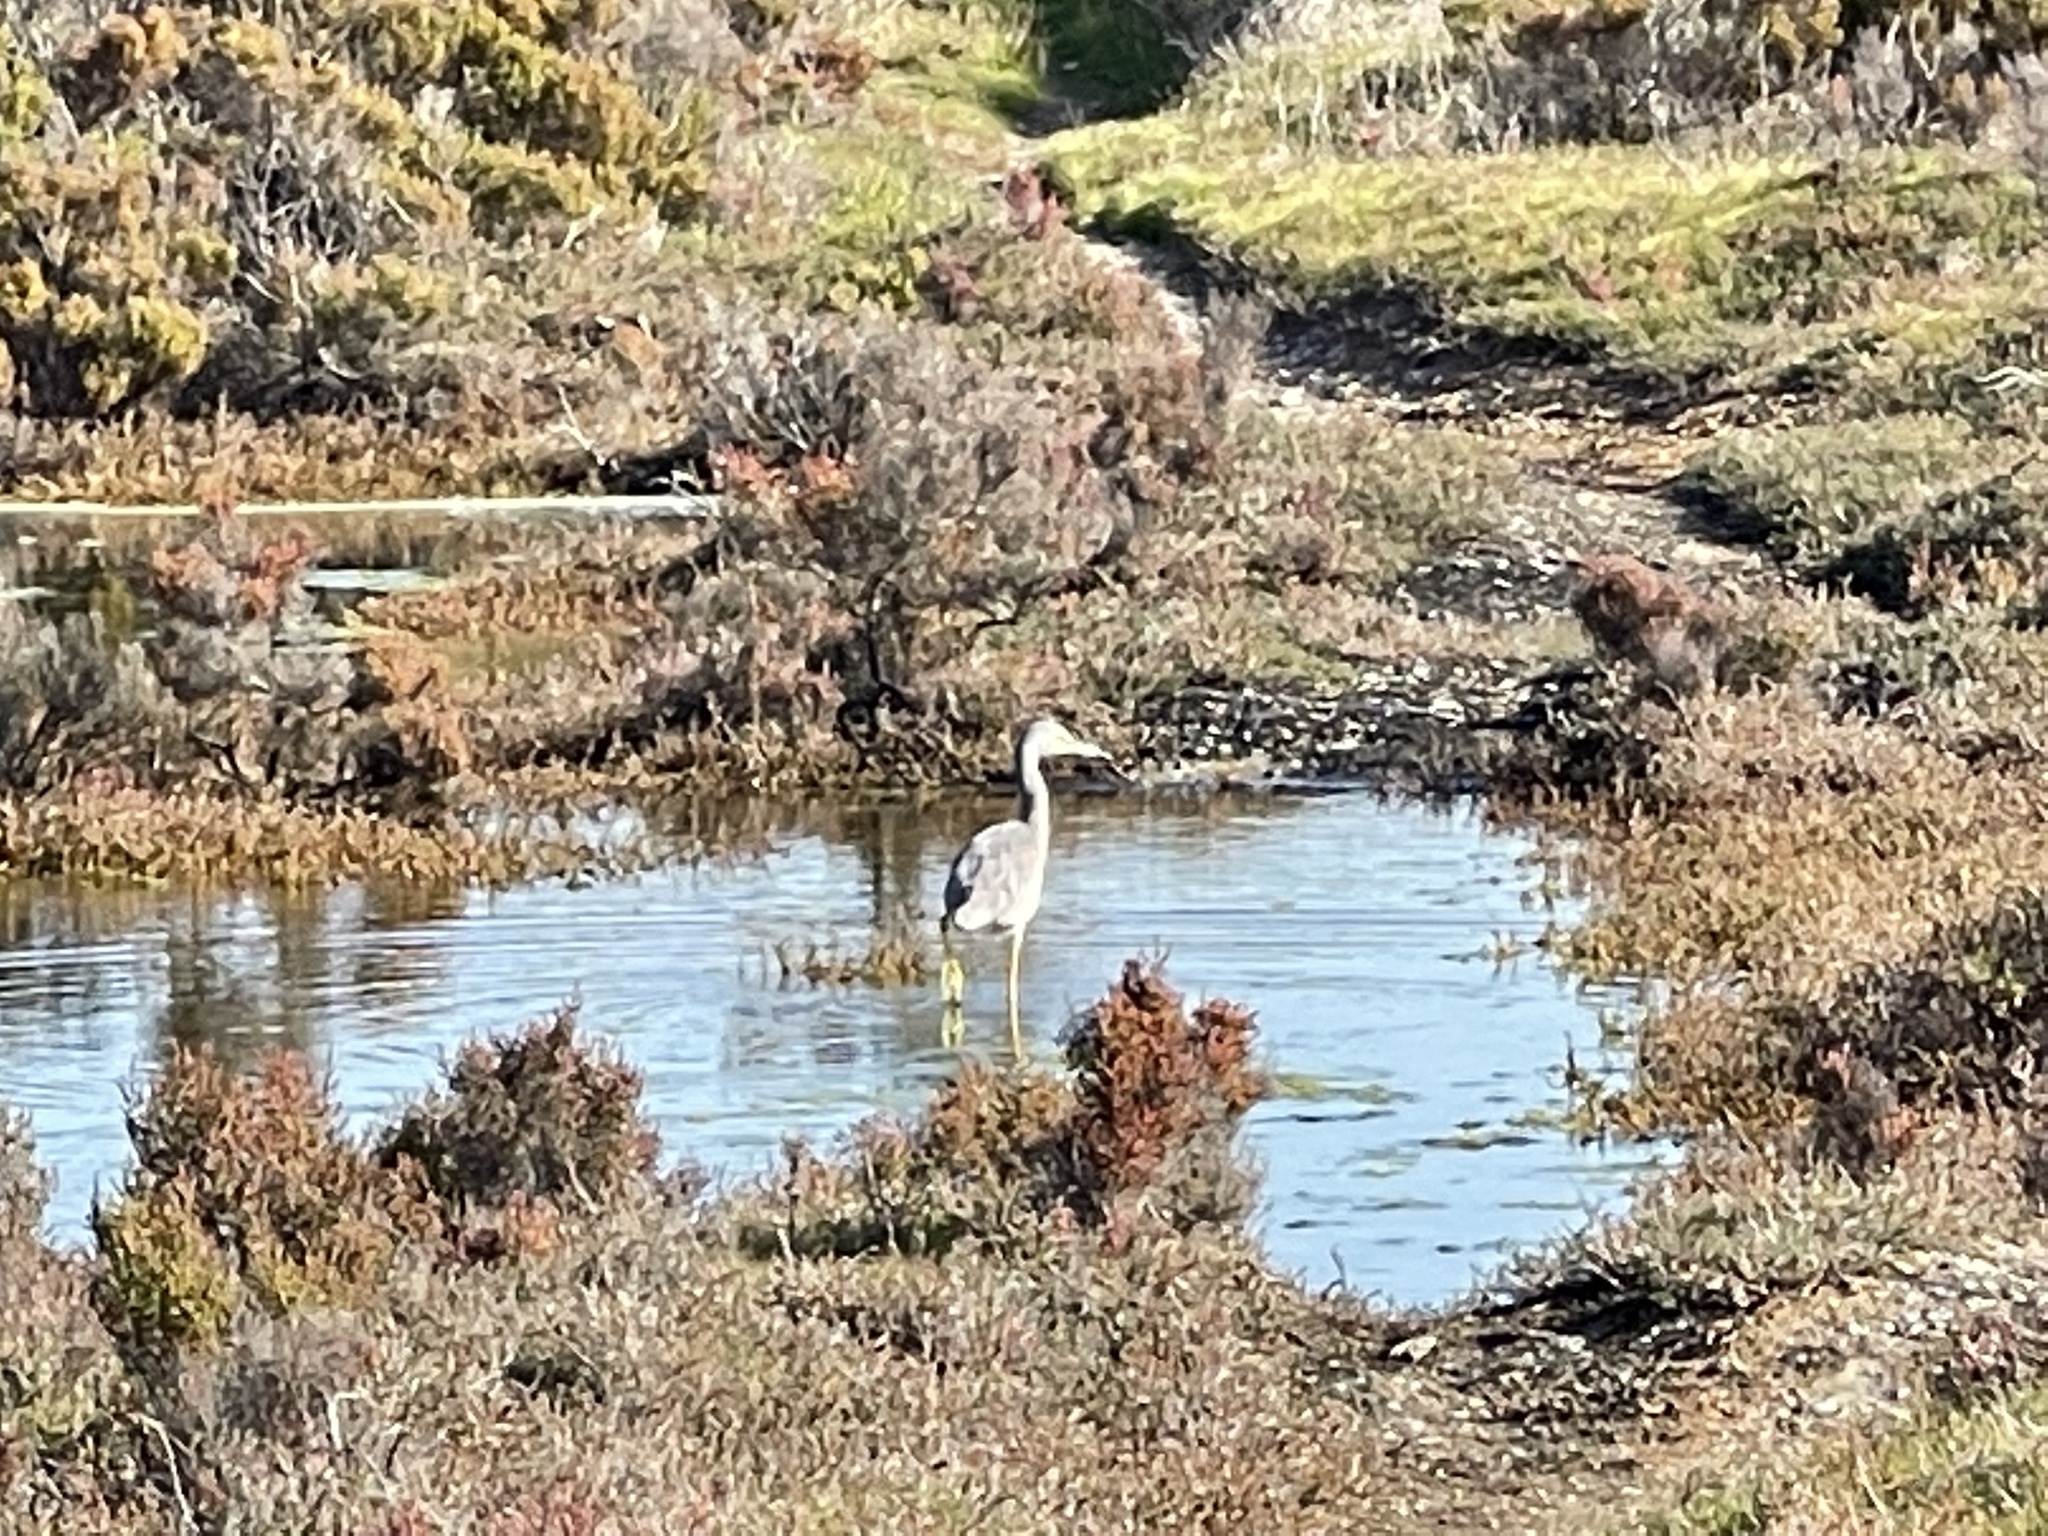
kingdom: Animalia
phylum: Chordata
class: Aves
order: Pelecaniformes
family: Ardeidae
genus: Egretta
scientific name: Egretta novaehollandiae
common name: White-faced heron
